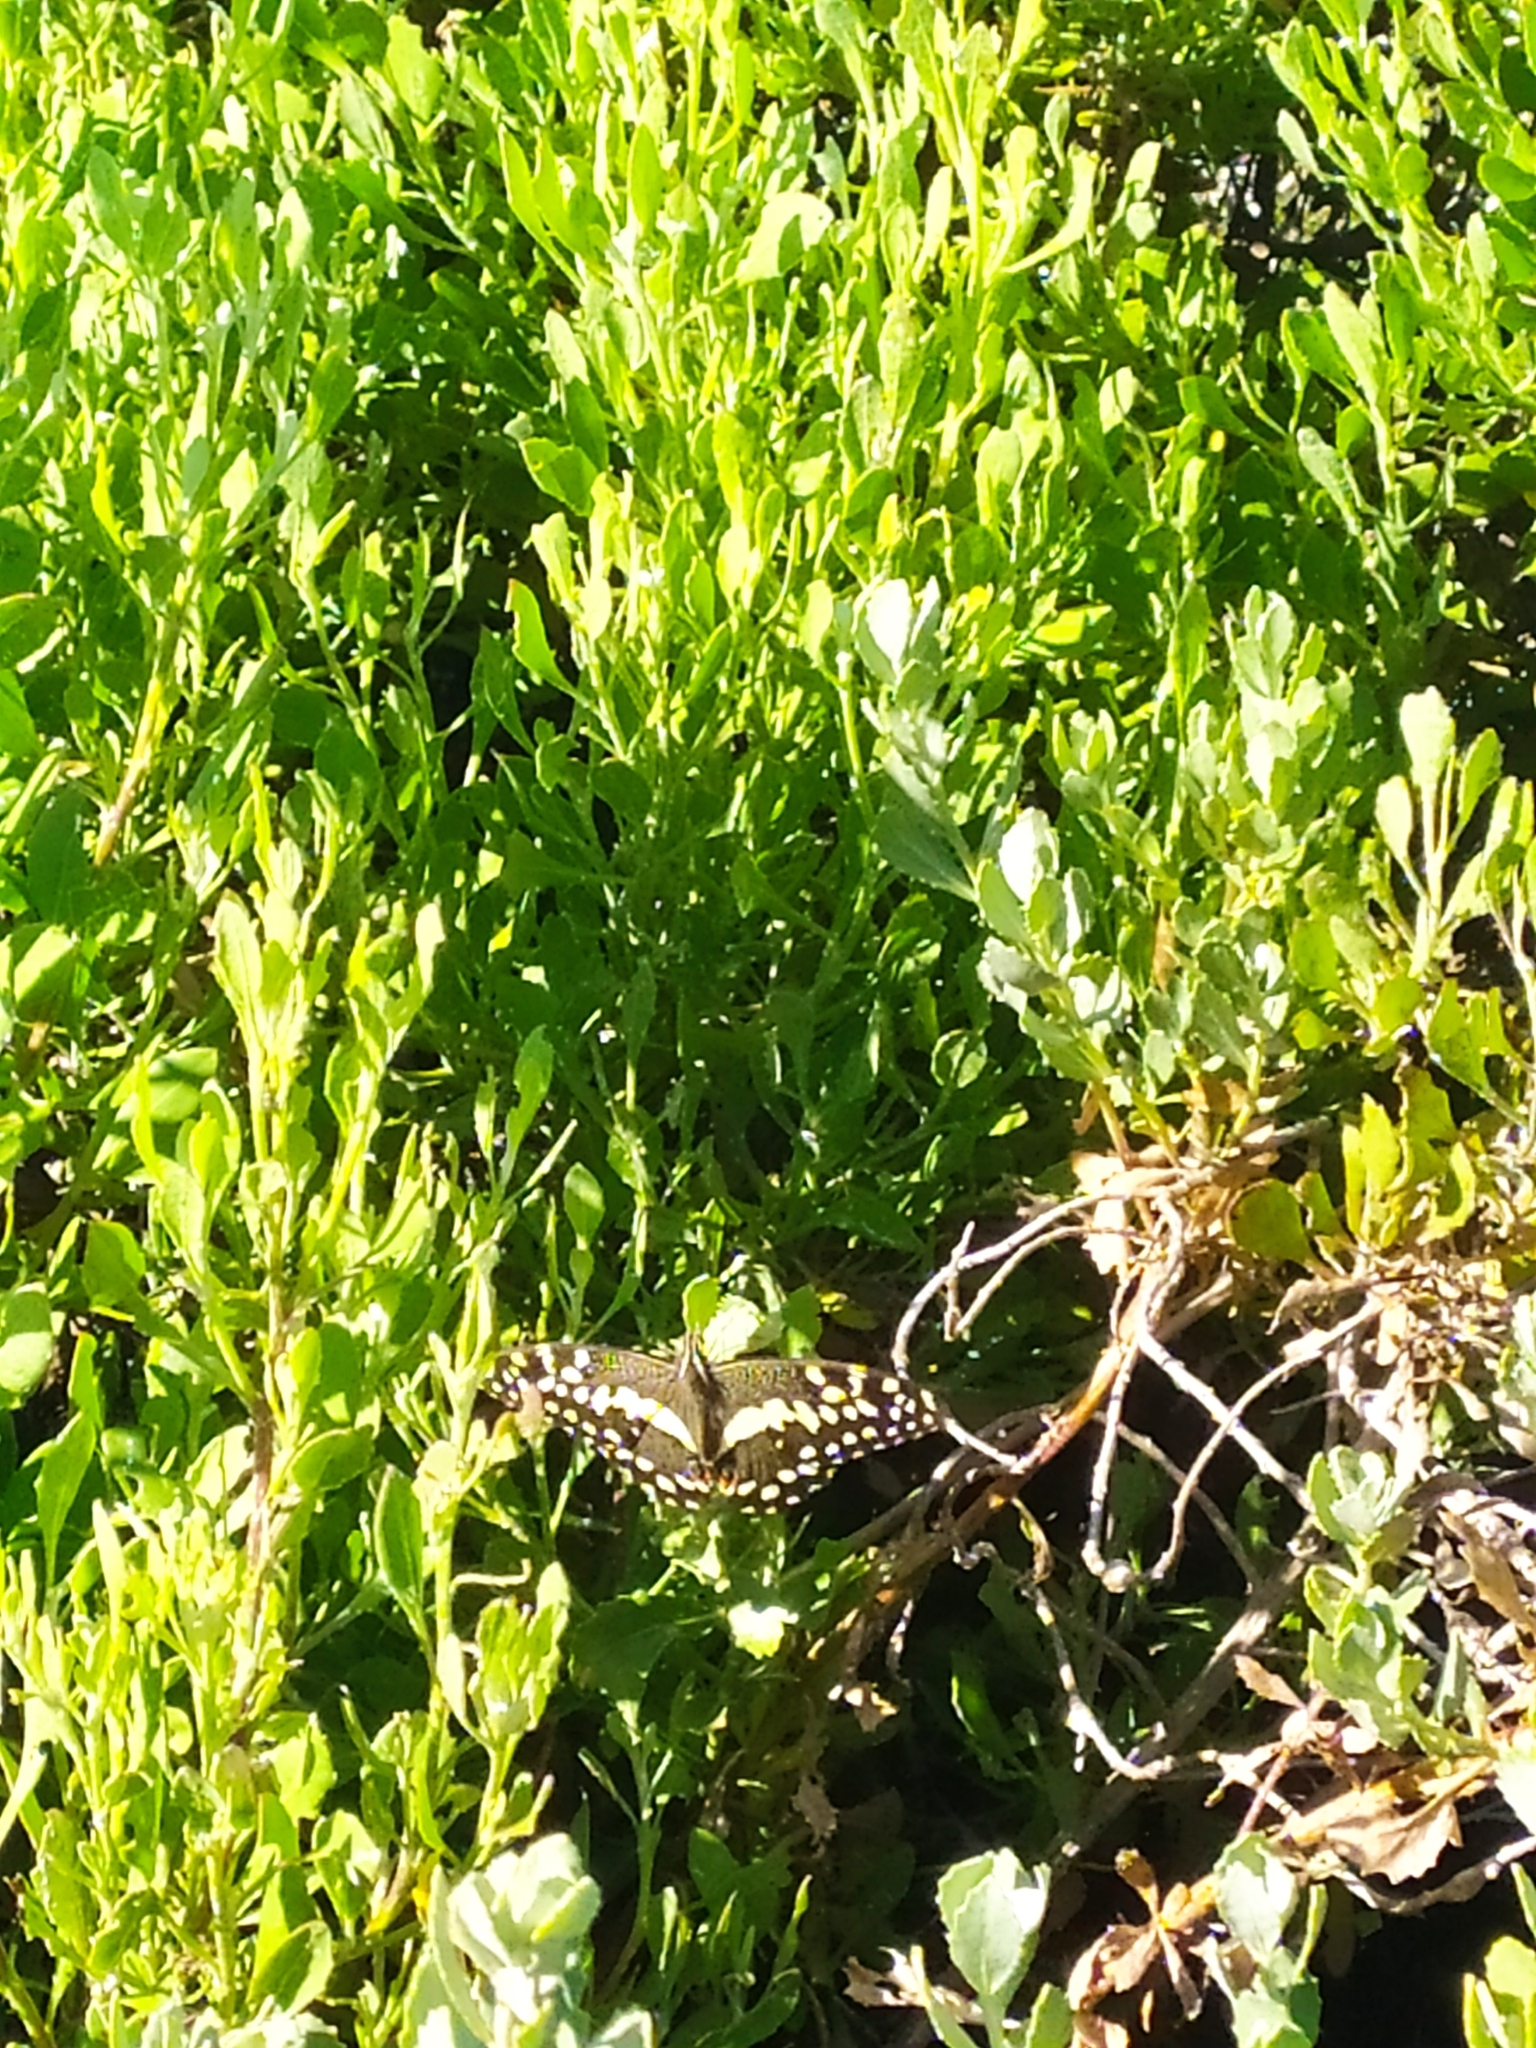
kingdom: Animalia
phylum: Arthropoda
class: Insecta
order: Lepidoptera
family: Papilionidae
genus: Papilio
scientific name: Papilio demodocus
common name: Christmas butterfly
